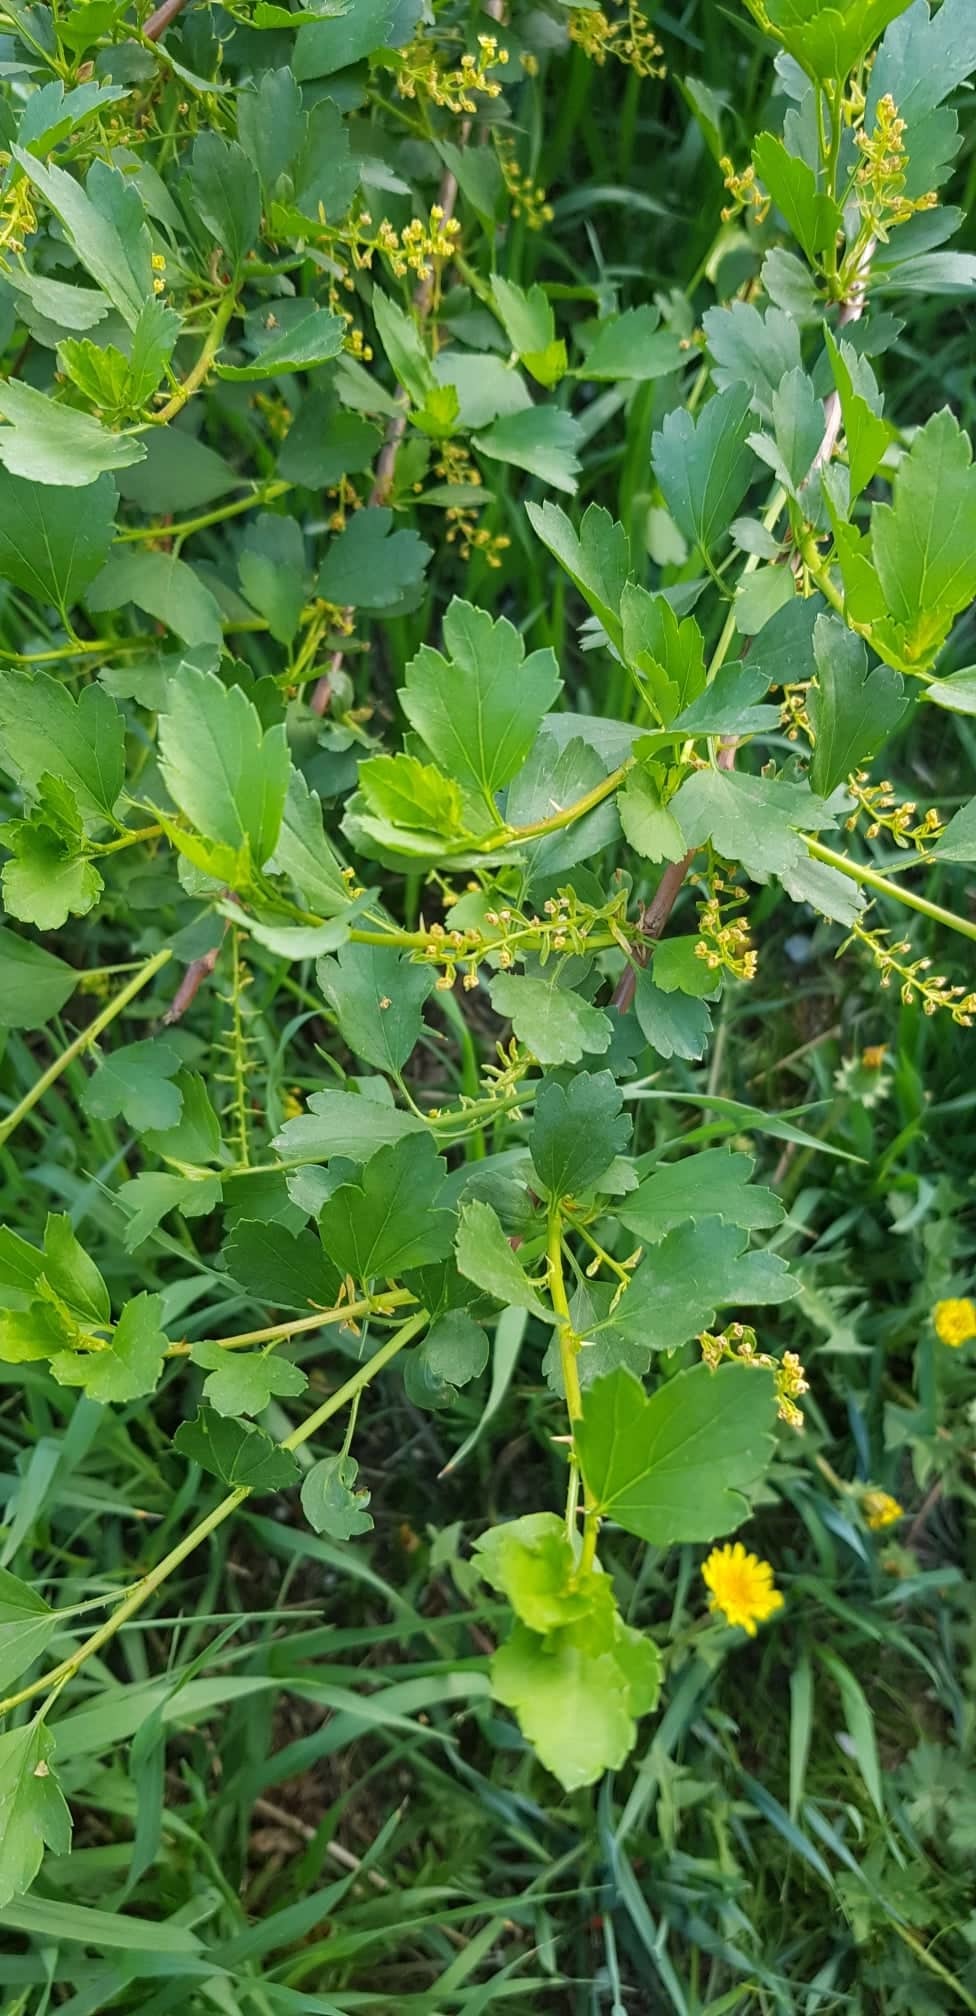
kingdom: Plantae
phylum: Tracheophyta
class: Magnoliopsida
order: Saxifragales
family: Grossulariaceae
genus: Ribes
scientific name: Ribes diacanthum
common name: Siberian currant
